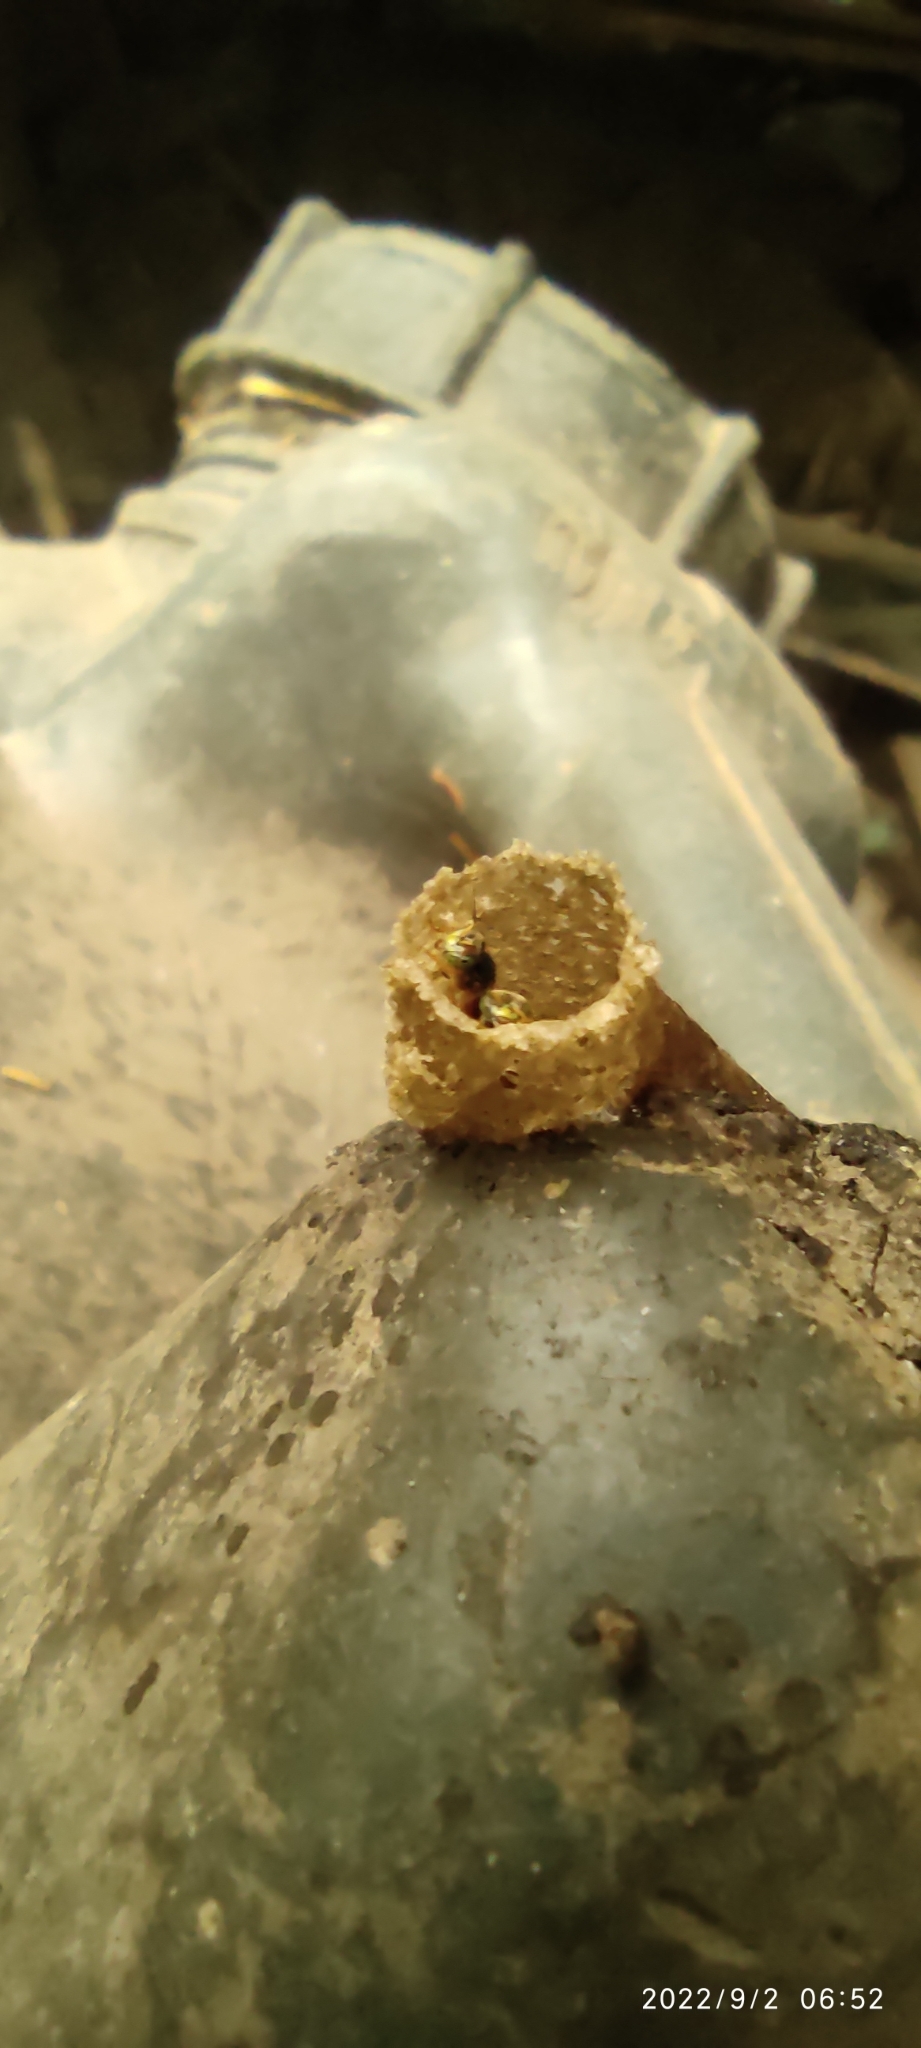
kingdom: Animalia
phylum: Arthropoda
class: Insecta
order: Hymenoptera
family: Apidae
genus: Tetragonisca
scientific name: Tetragonisca angustula
